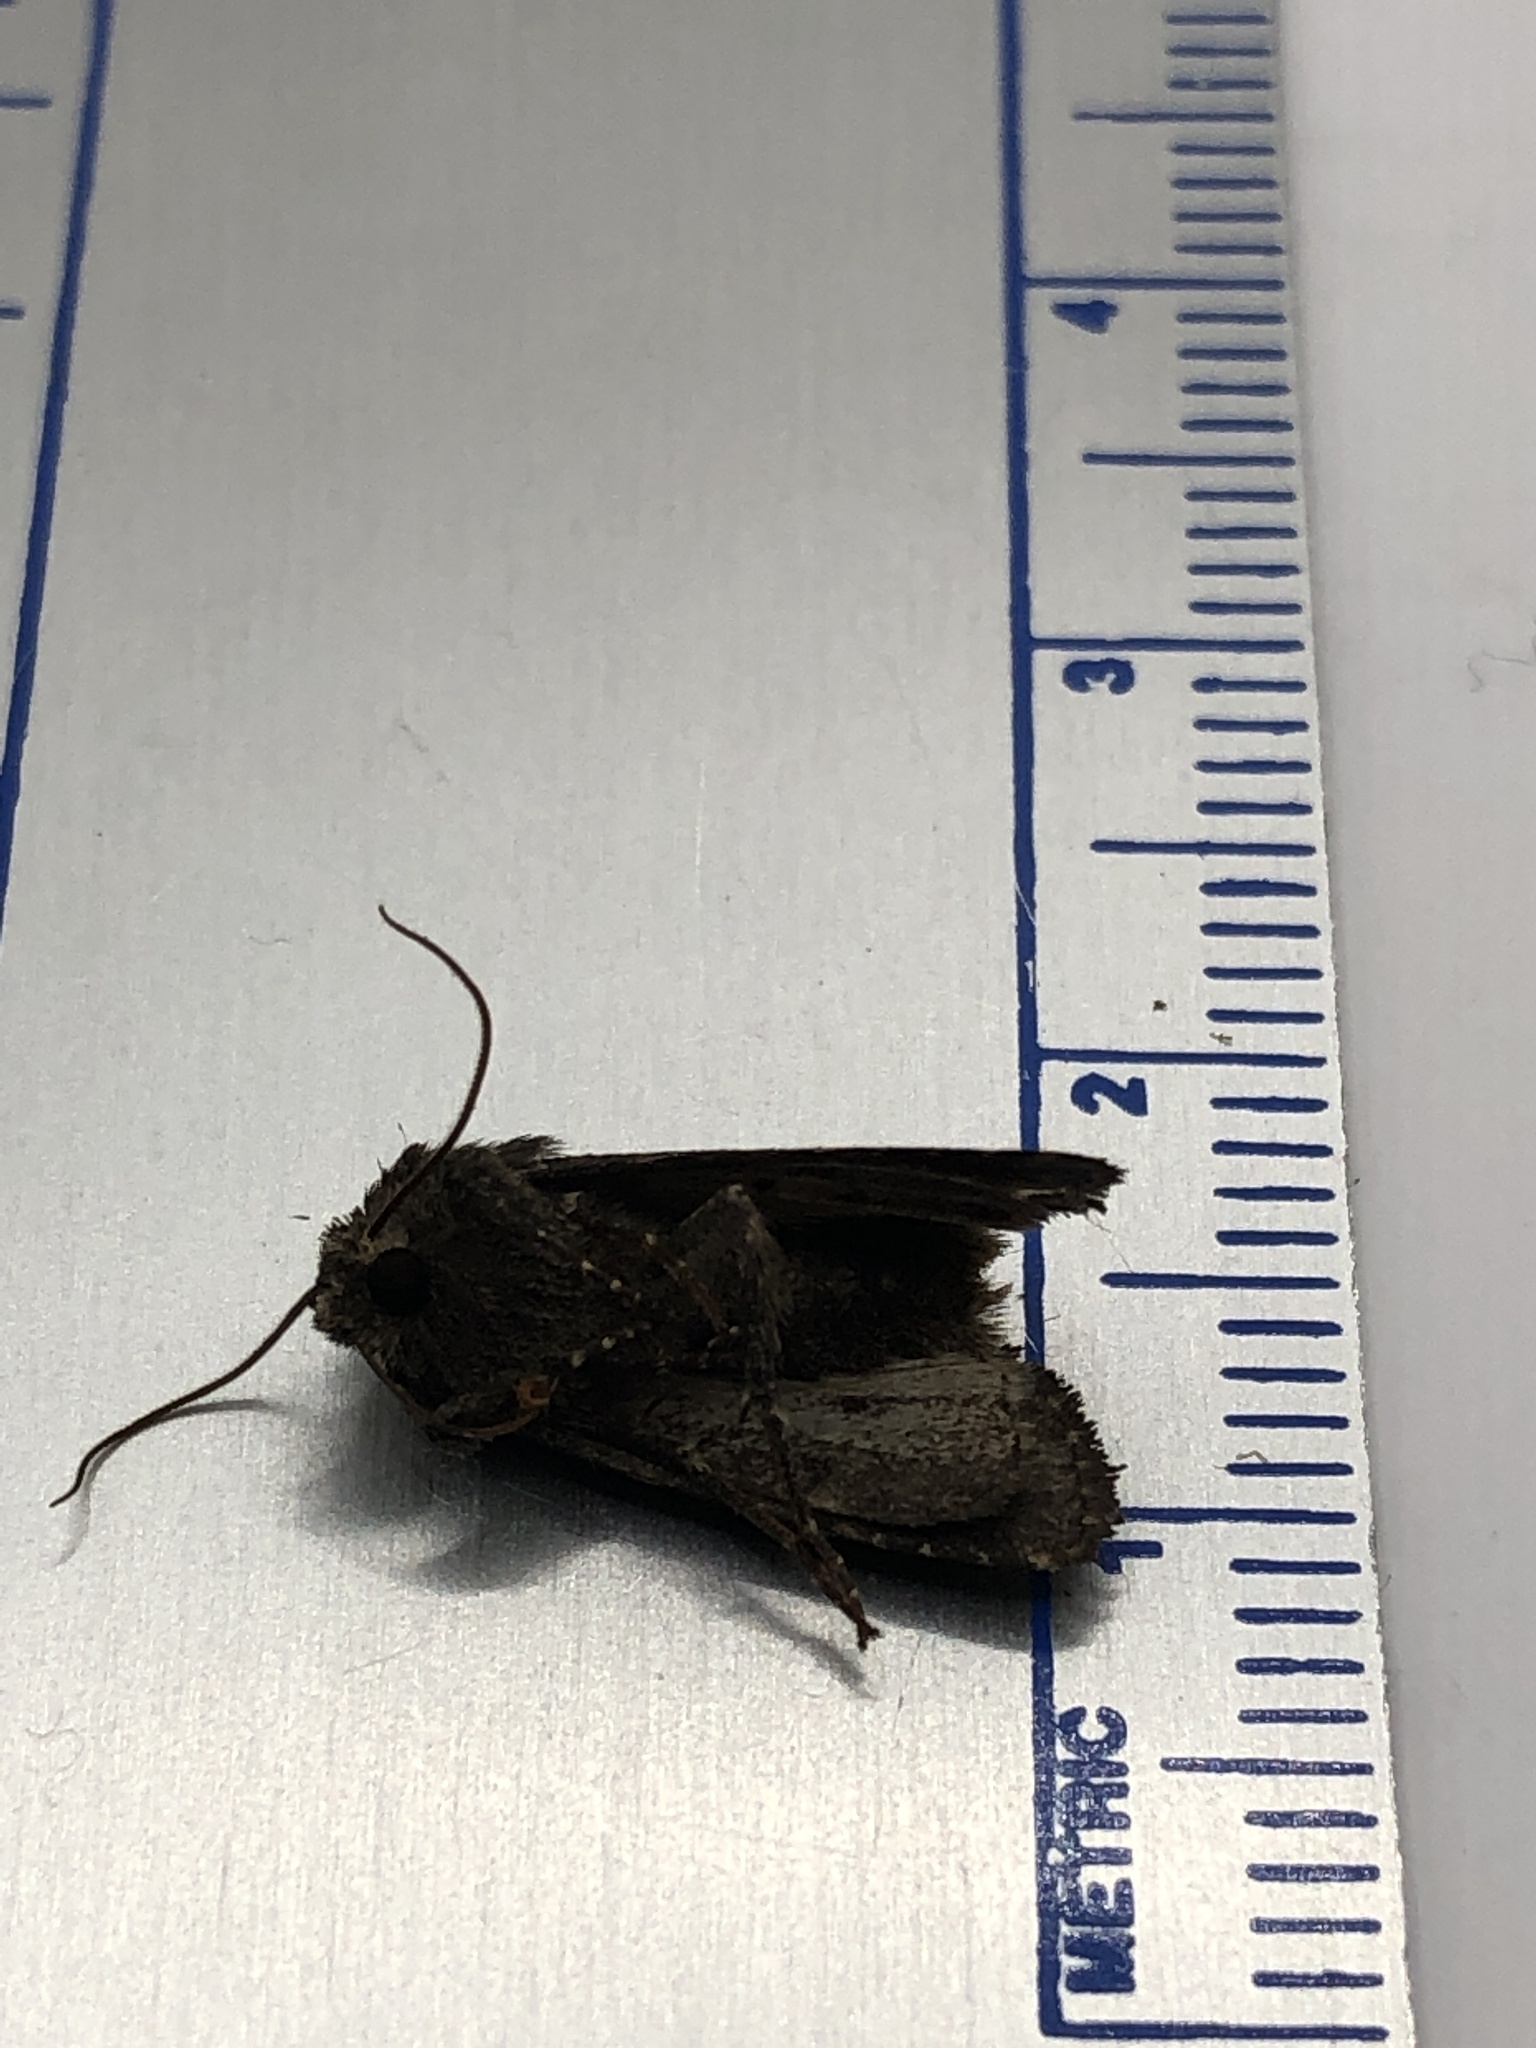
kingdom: Animalia
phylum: Arthropoda
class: Insecta
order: Lepidoptera
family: Noctuidae
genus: Lacinipolia
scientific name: Lacinipolia renigera
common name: Kidney-spotted minor
